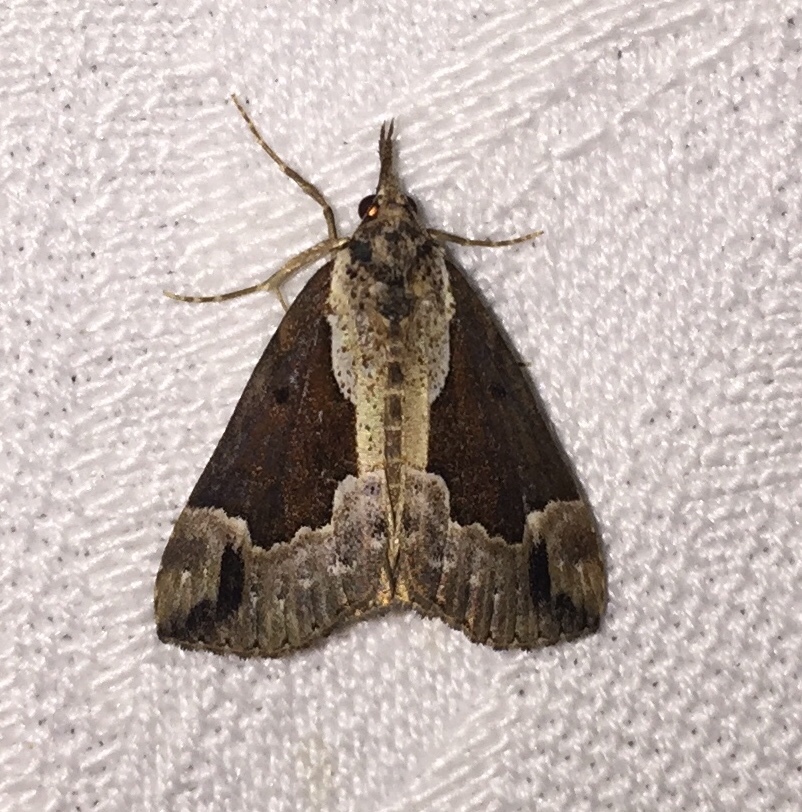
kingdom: Animalia
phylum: Arthropoda
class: Insecta
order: Lepidoptera
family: Erebidae
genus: Hypena
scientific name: Hypena baltimoralis
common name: Baltimore snout
